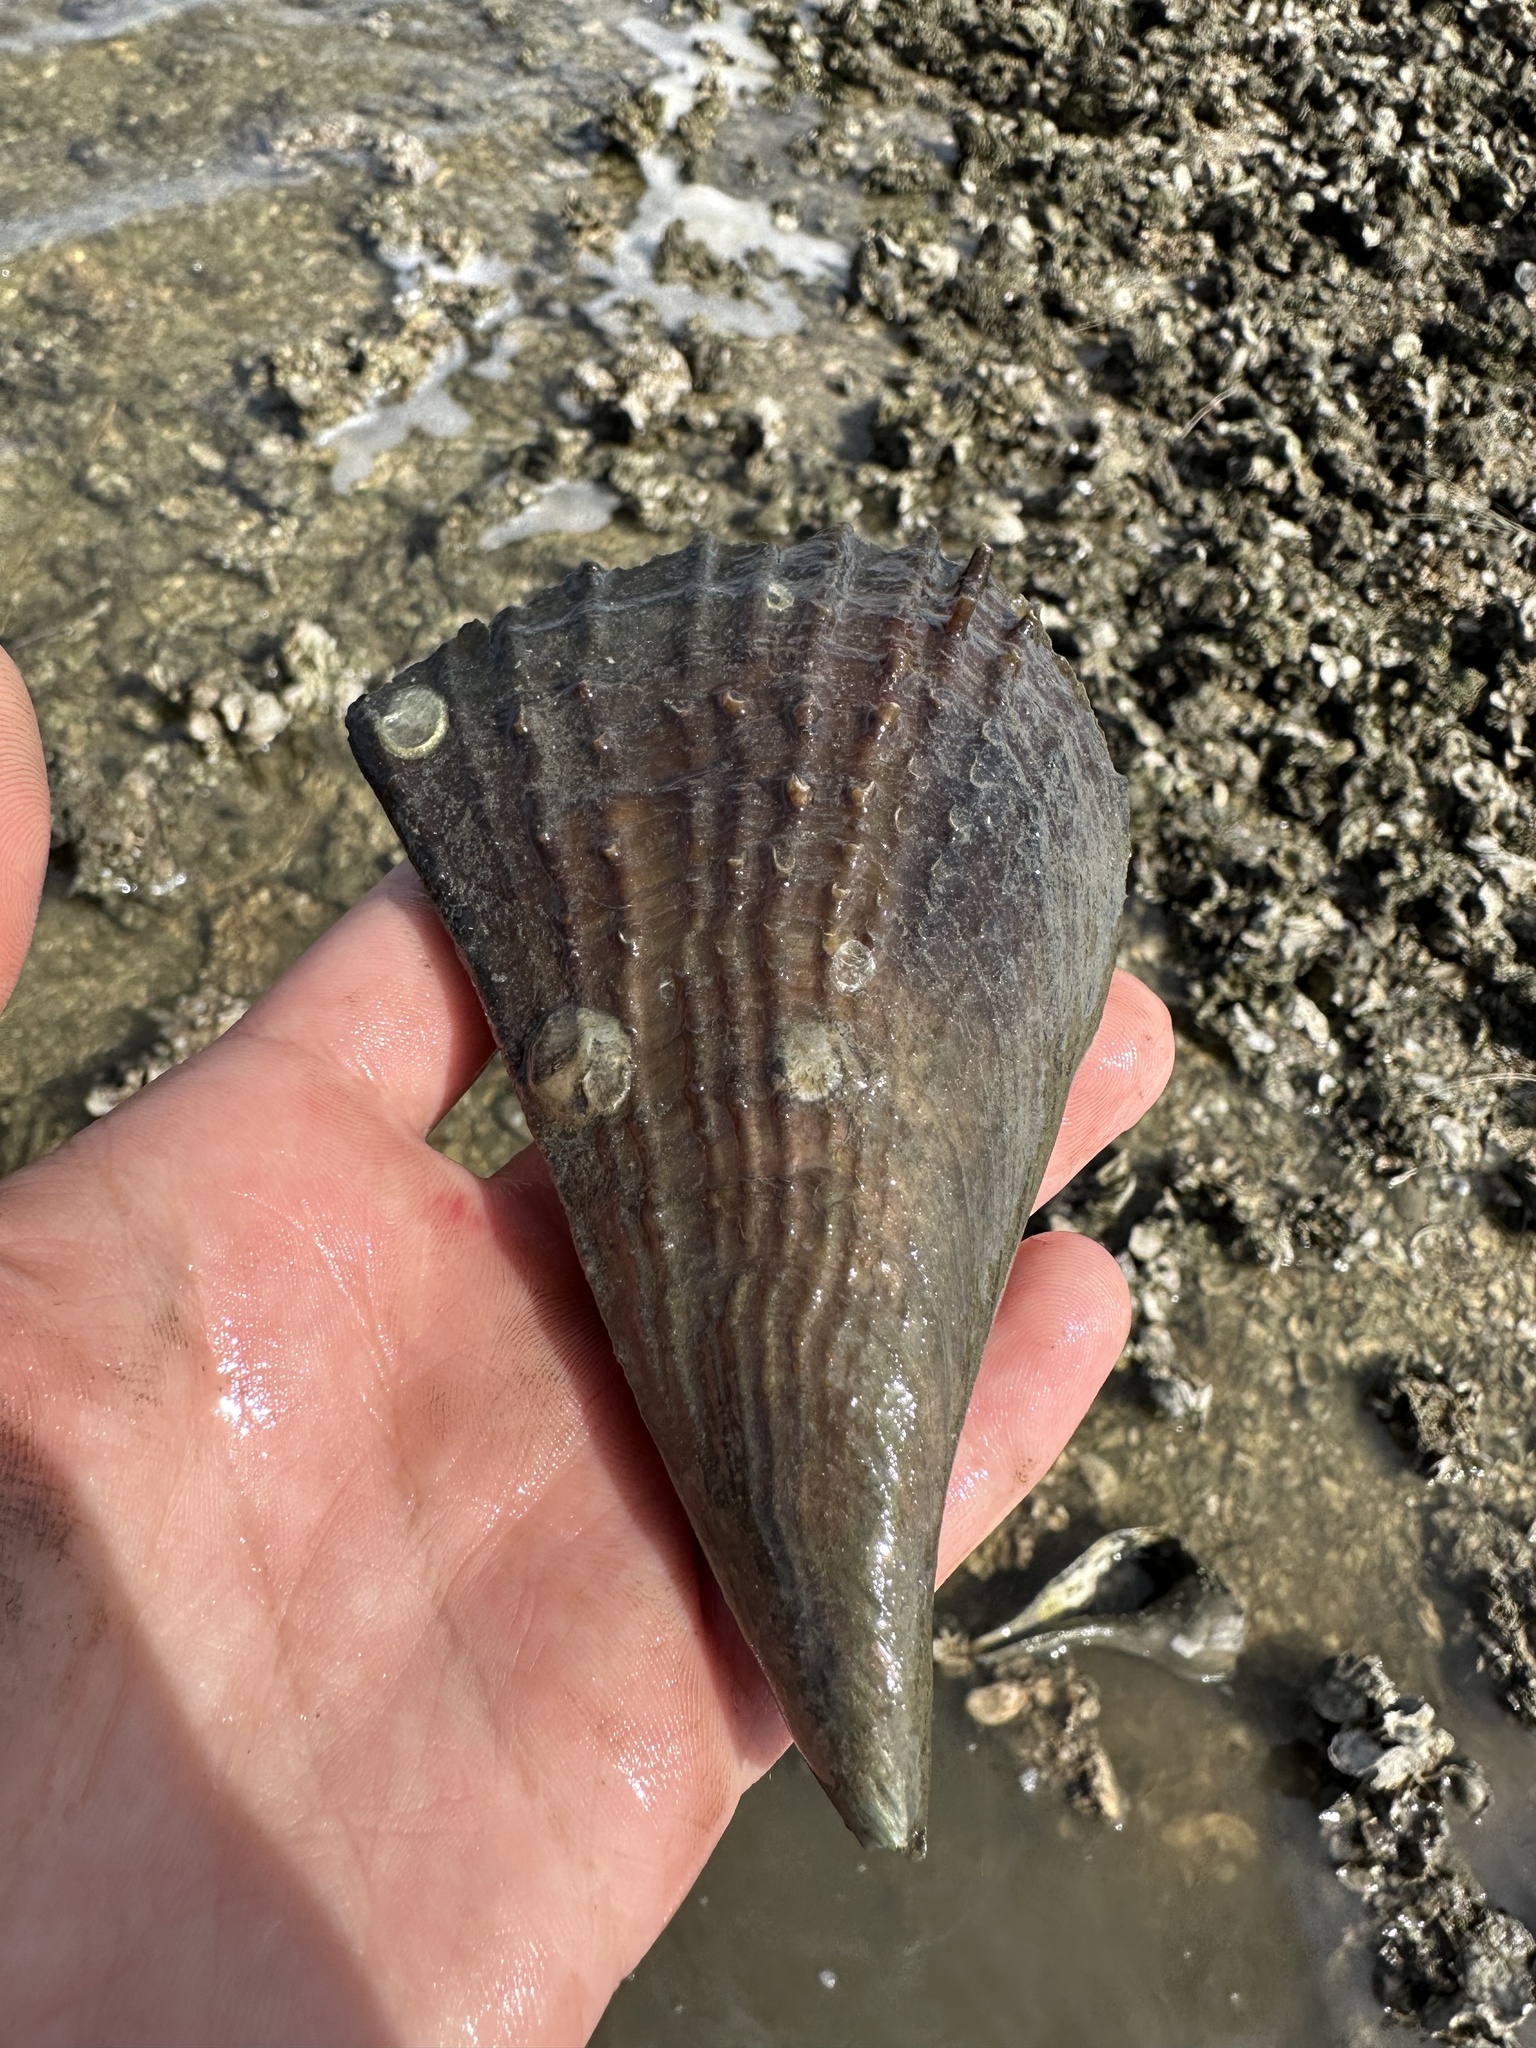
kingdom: Animalia
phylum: Mollusca
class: Bivalvia
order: Ostreida
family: Pinnidae
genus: Atrina
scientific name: Atrina rigida
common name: Stiff penshell
